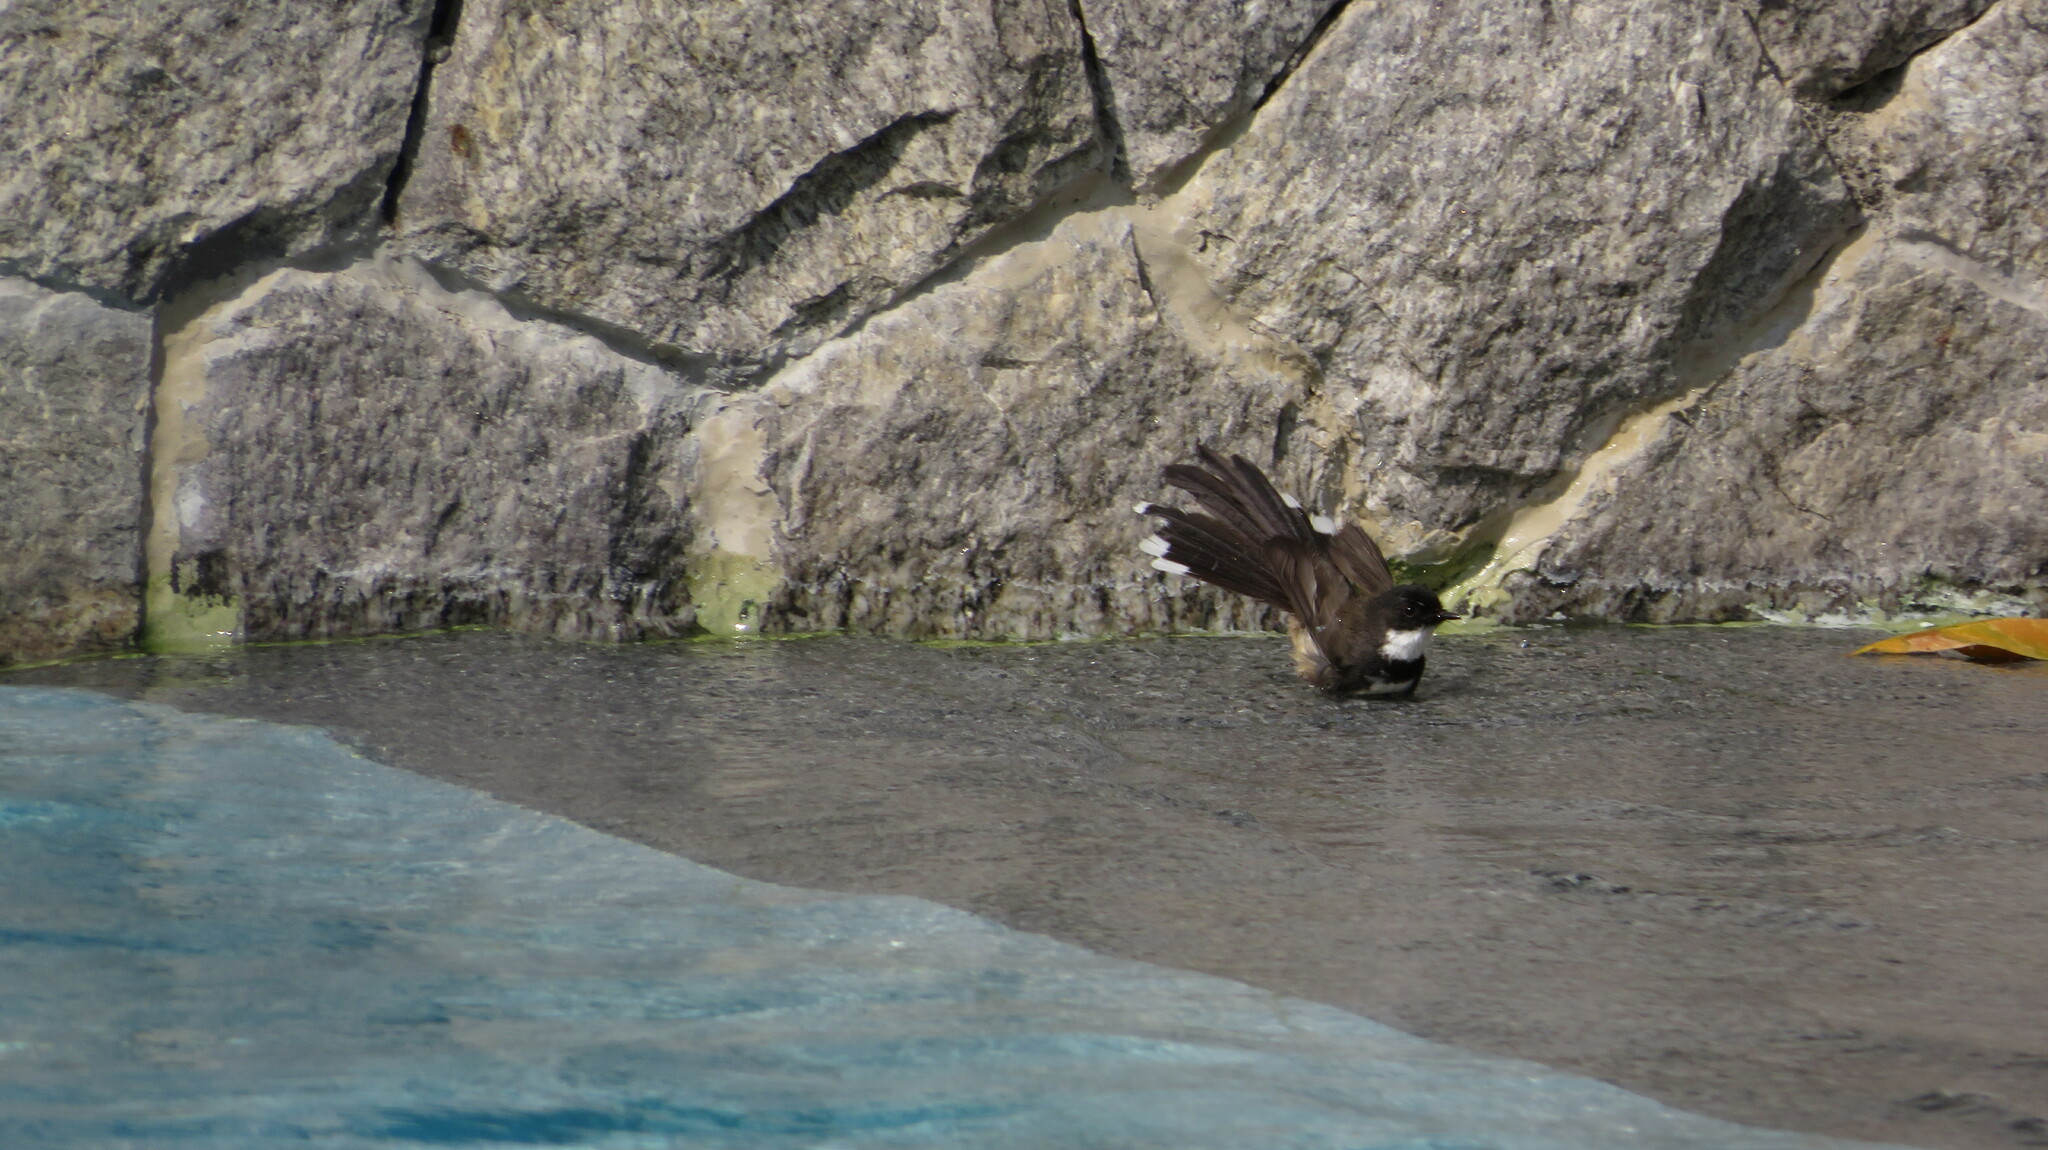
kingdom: Animalia
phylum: Chordata
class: Aves
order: Passeriformes
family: Rhipiduridae
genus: Rhipidura
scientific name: Rhipidura javanica
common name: Pied fantail
